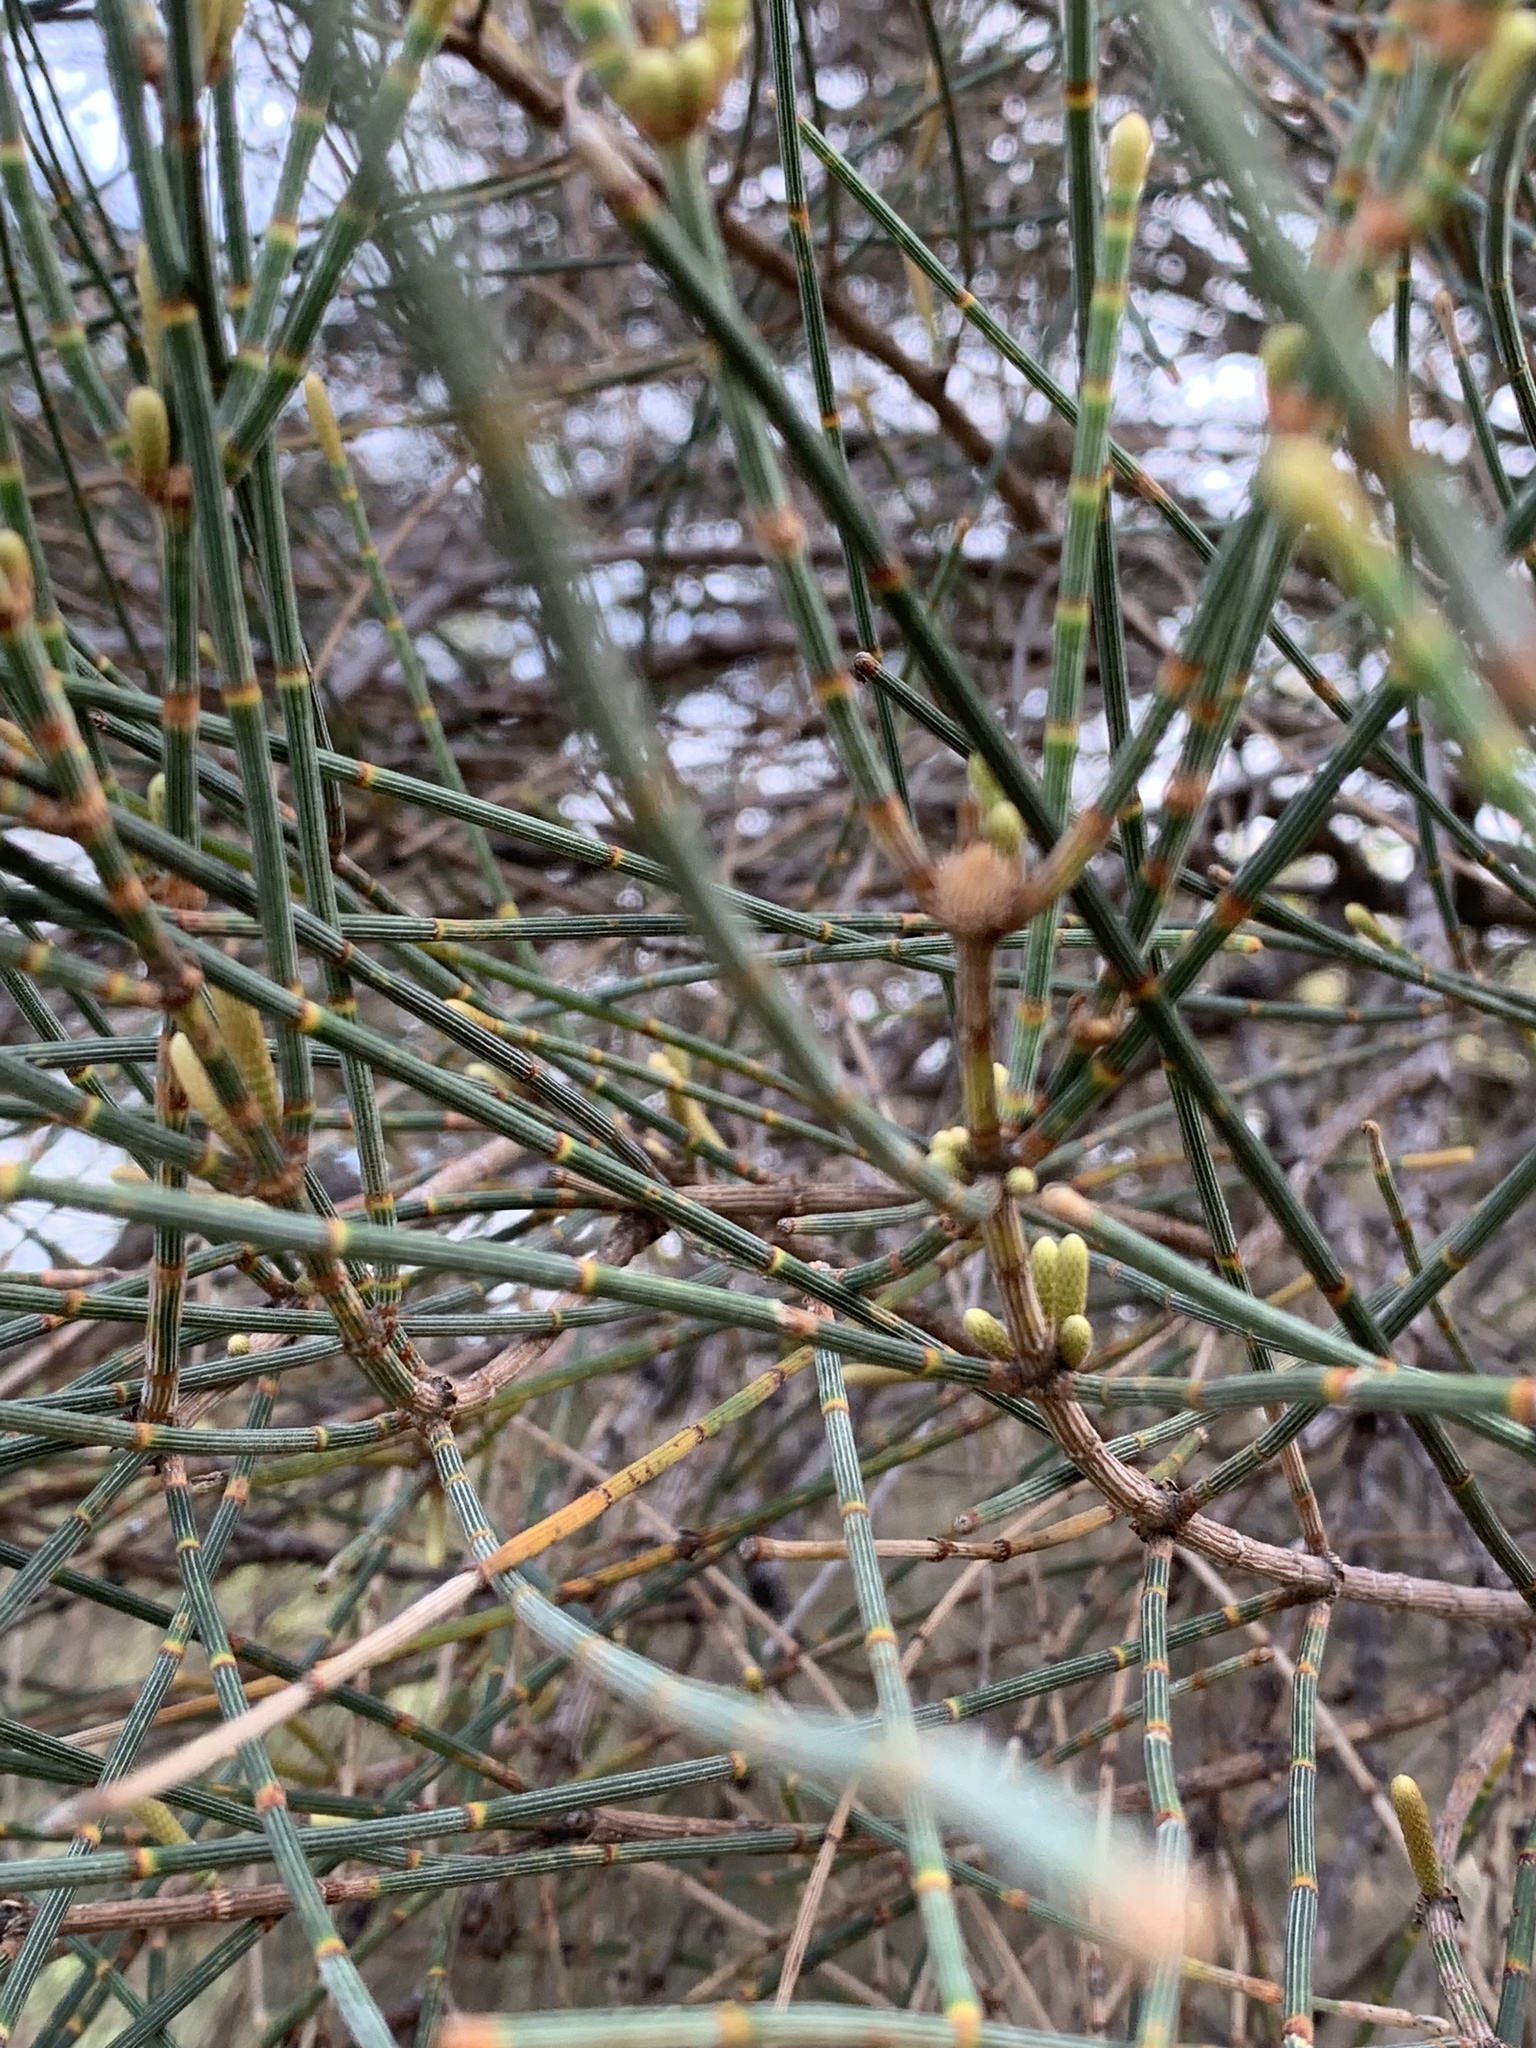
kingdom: Plantae
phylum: Tracheophyta
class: Magnoliopsida
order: Fagales
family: Casuarinaceae
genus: Allocasuarina
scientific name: Allocasuarina verticillata
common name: Drooping she-oak
